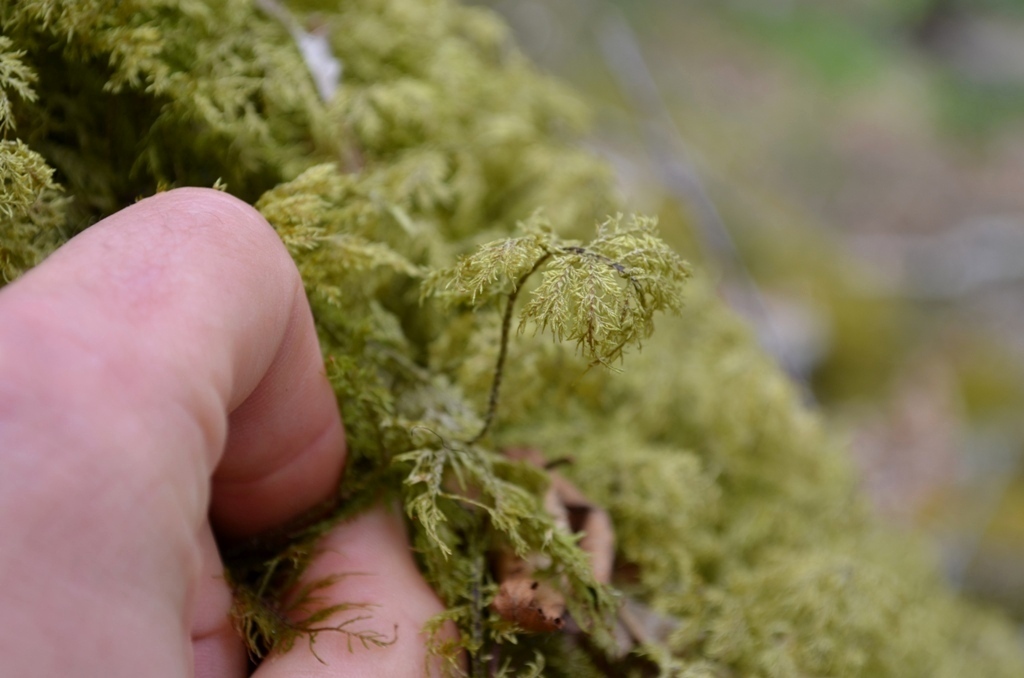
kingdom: Plantae
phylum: Bryophyta
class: Bryopsida
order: Hypnales
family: Hylocomiaceae
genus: Hylocomium
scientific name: Hylocomium splendens
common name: Stairstep moss
